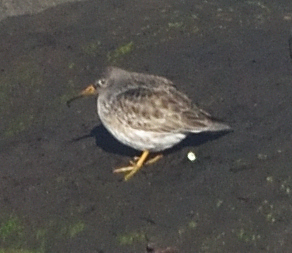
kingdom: Animalia
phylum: Chordata
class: Aves
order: Charadriiformes
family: Scolopacidae
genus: Calidris
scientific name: Calidris maritima
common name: Purple sandpiper
